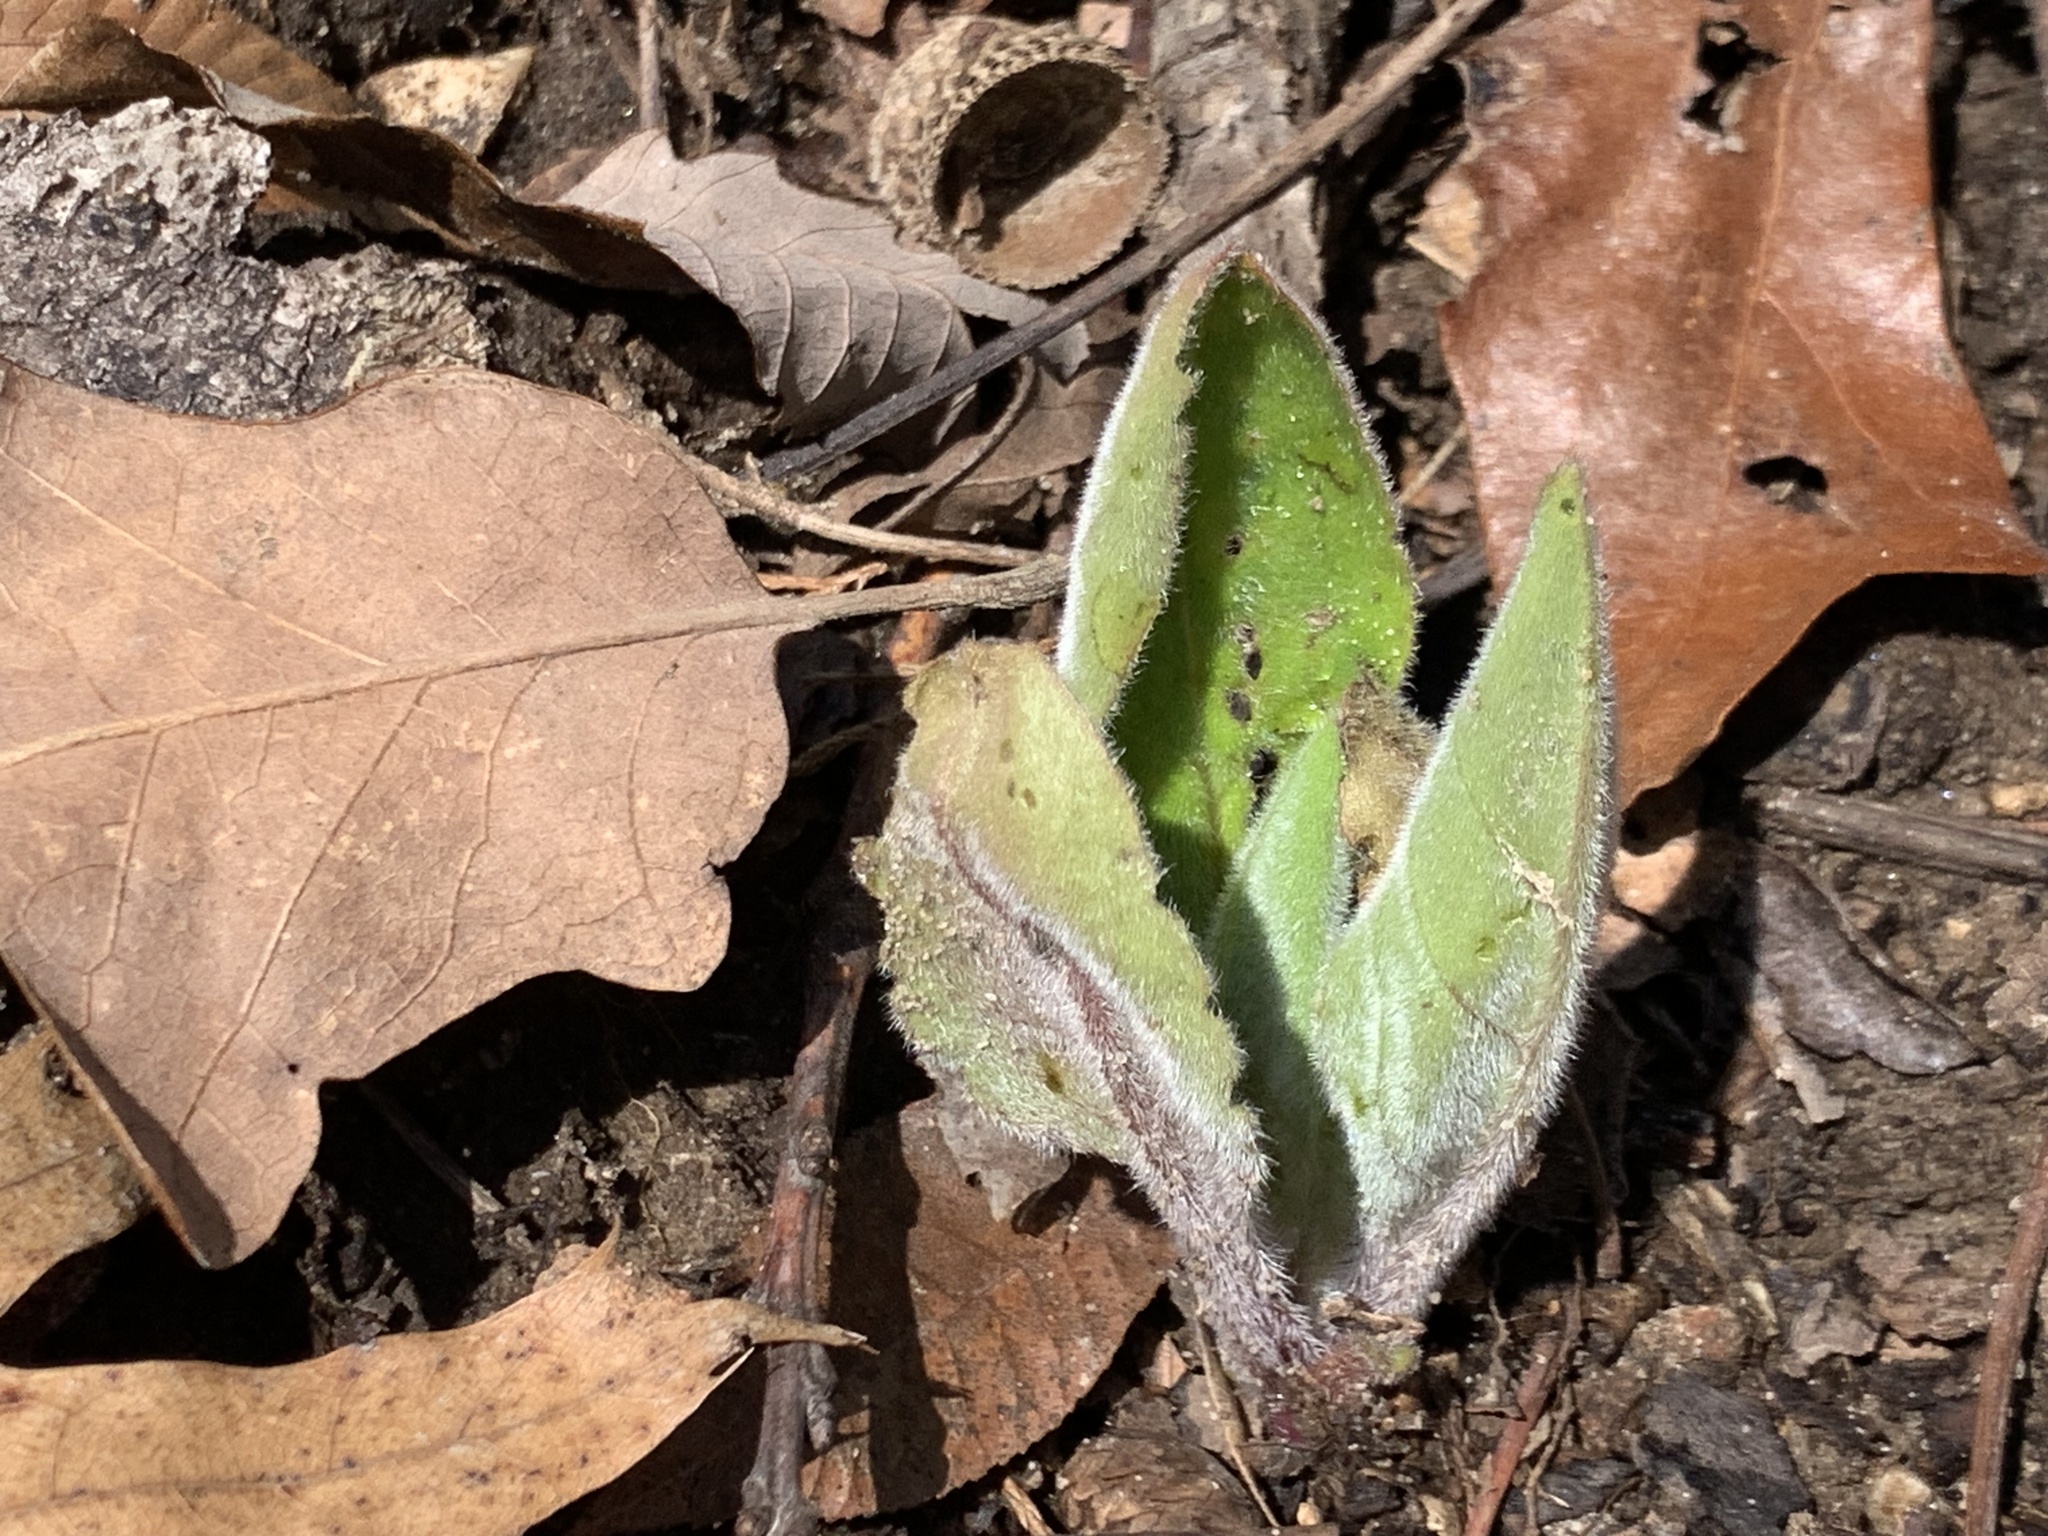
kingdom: Plantae
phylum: Tracheophyta
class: Magnoliopsida
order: Boraginales
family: Boraginaceae
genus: Andersonglossum
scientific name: Andersonglossum virginianum
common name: Wild comfrey
